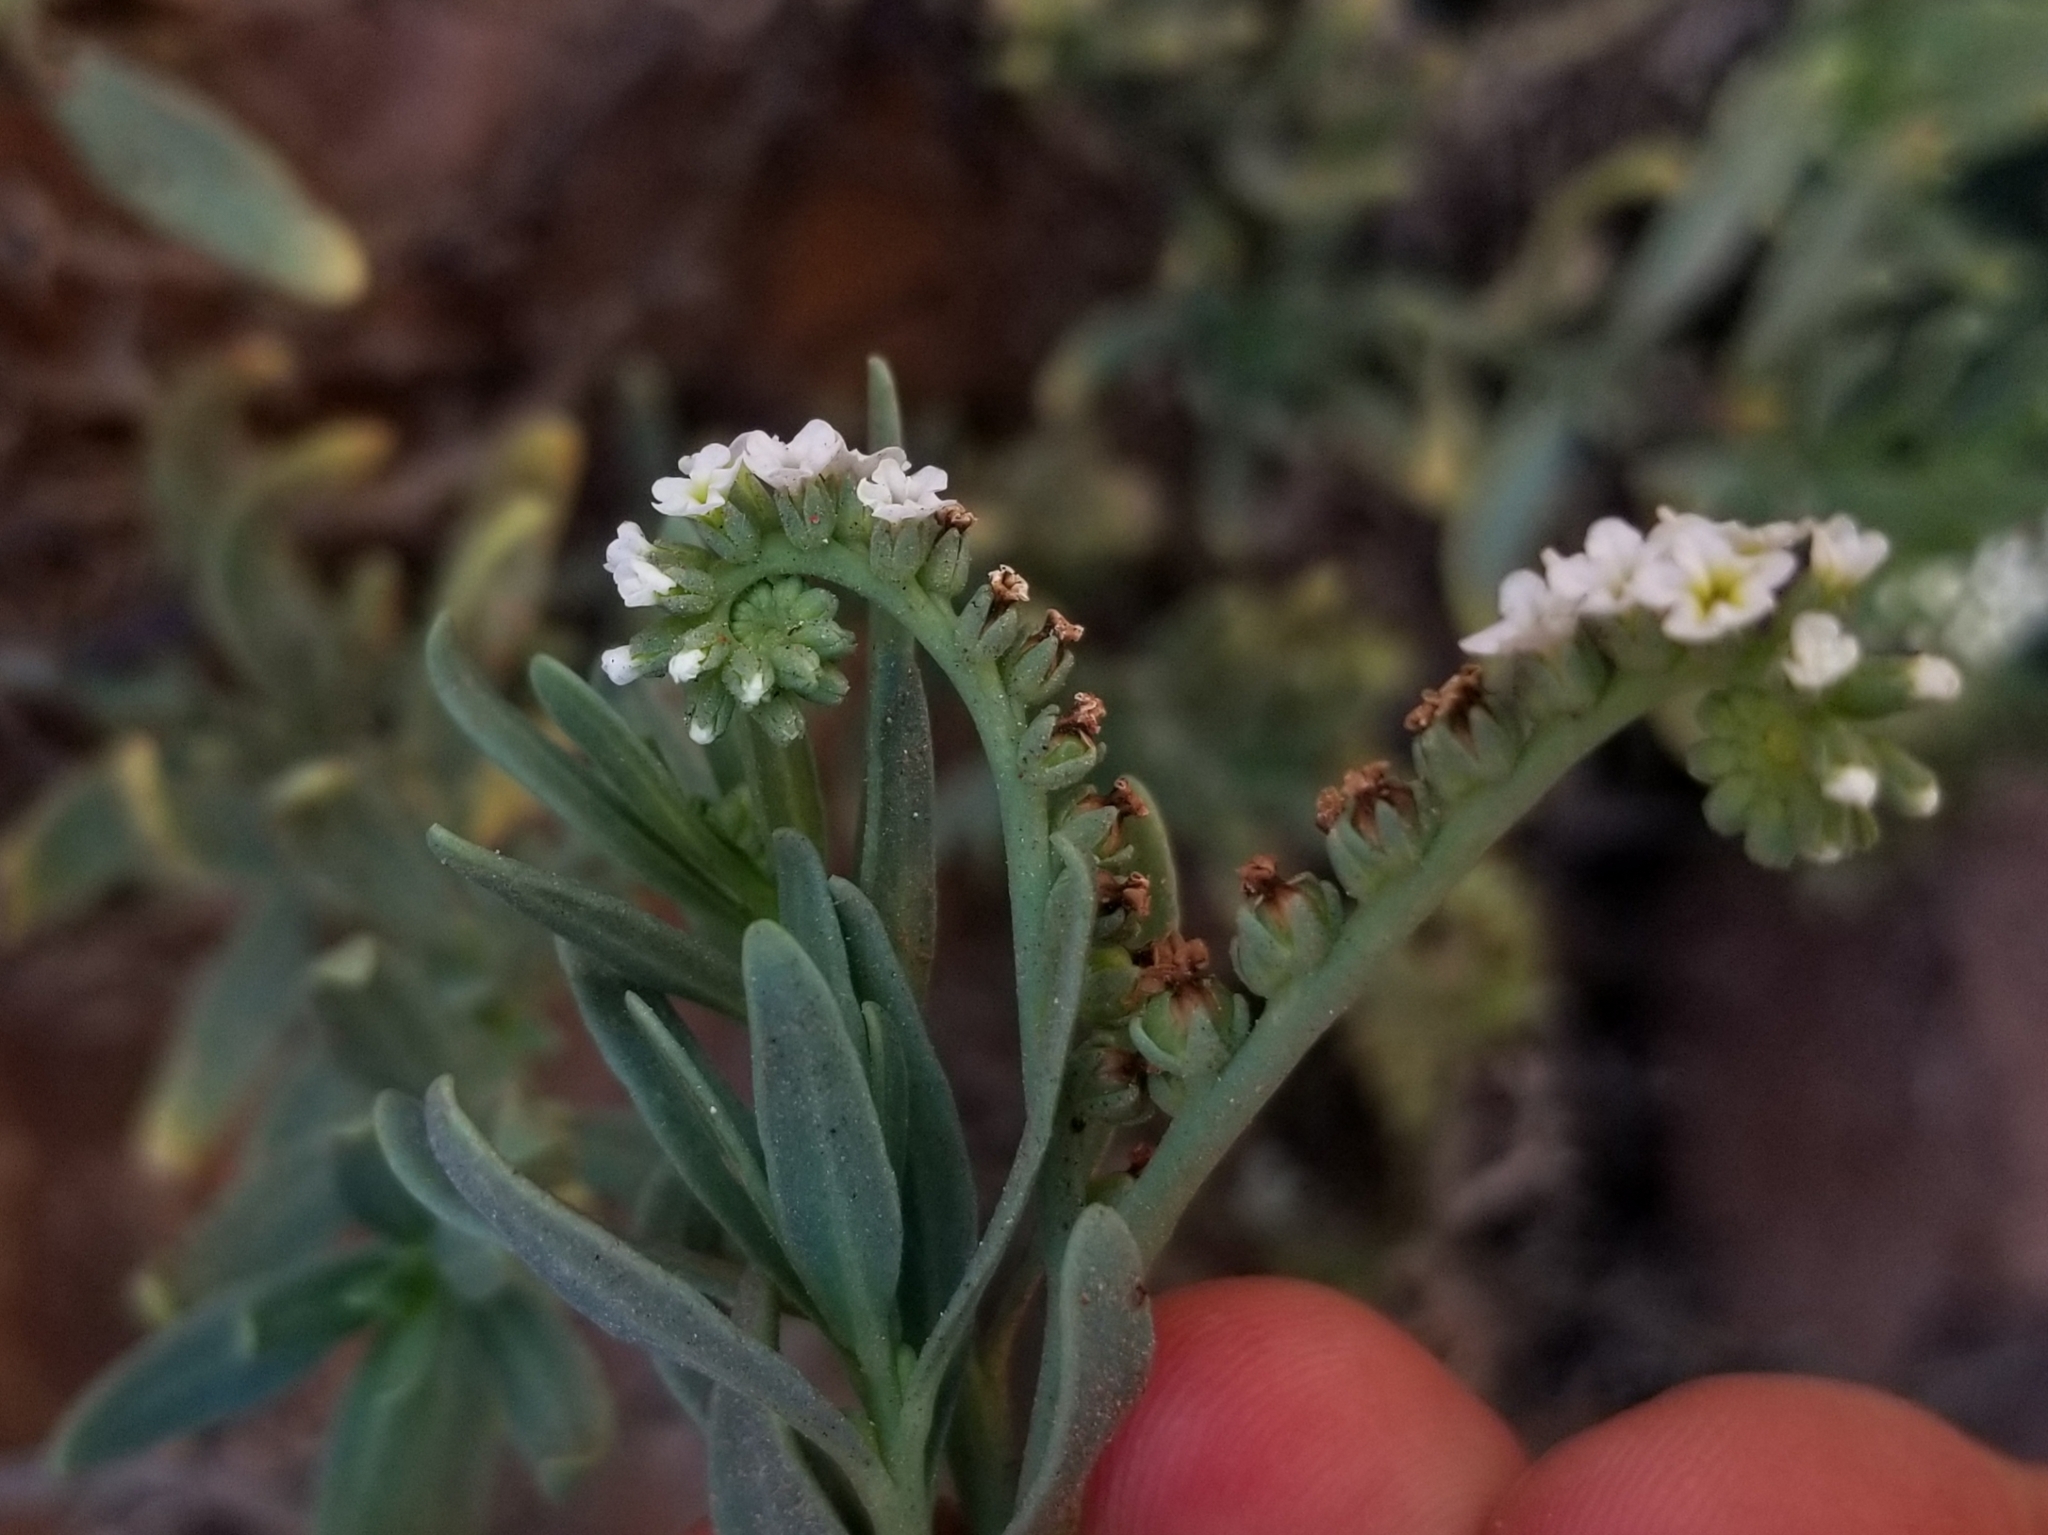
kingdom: Plantae
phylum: Tracheophyta
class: Magnoliopsida
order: Boraginales
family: Heliotropiaceae
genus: Heliotropium
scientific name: Heliotropium curassavicum
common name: Seaside heliotrope
